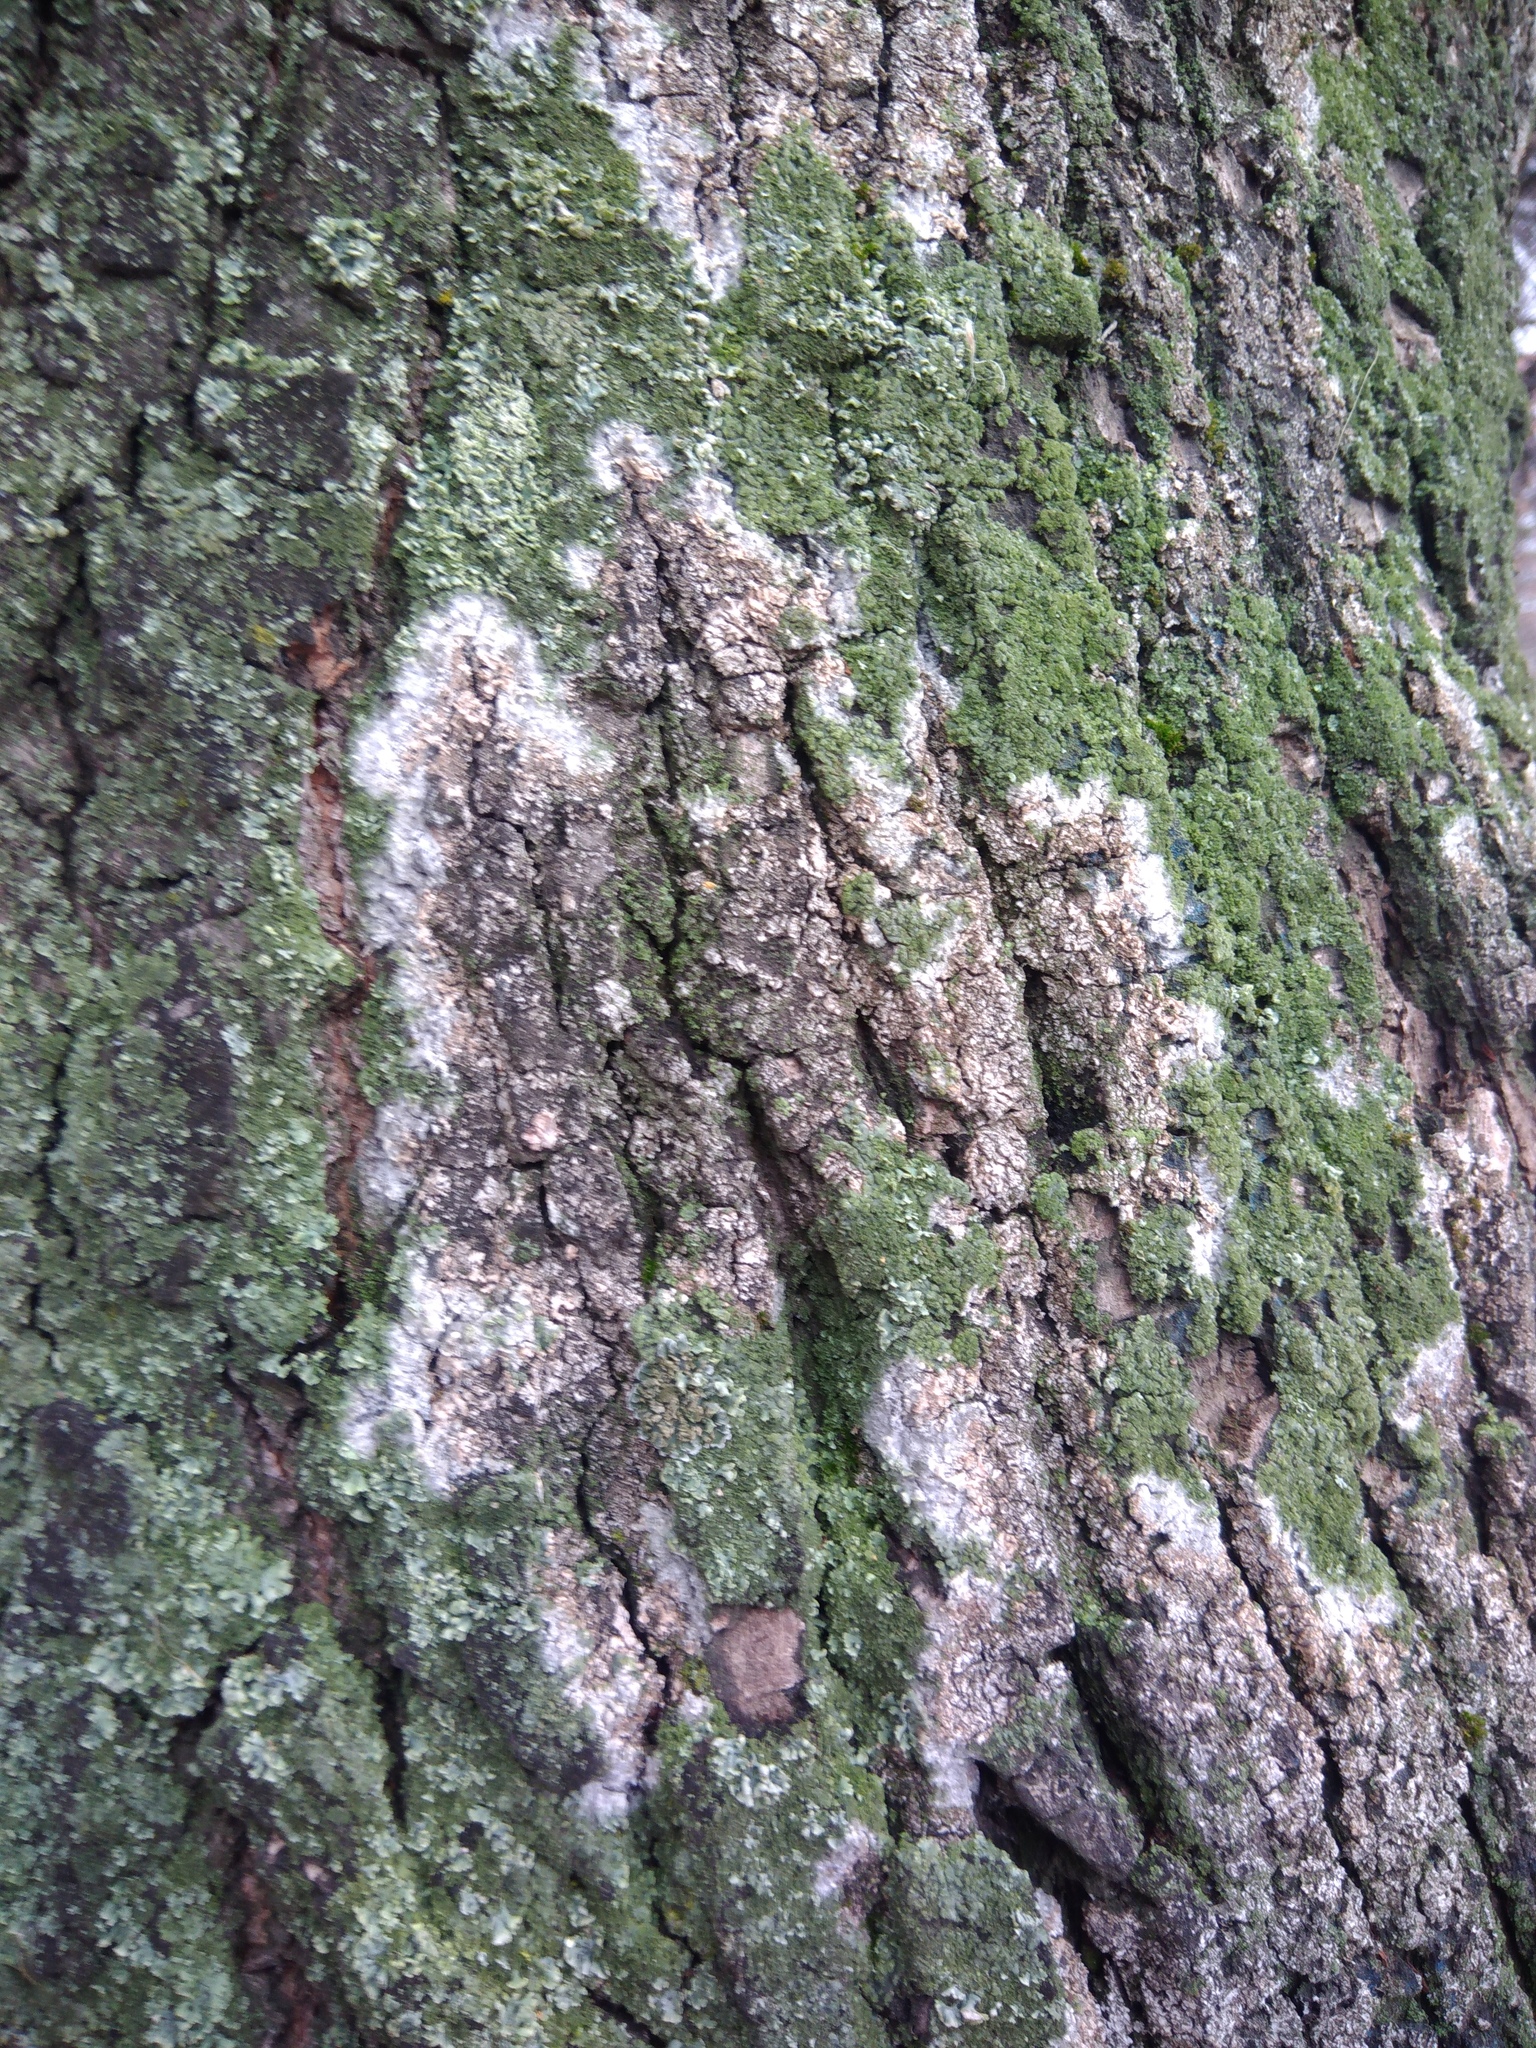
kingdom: Fungi
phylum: Basidiomycota
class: Agaricomycetes
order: Atheliales
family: Atheliaceae
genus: Athelia
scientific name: Athelia arachnoidea
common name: Candelabra duster
